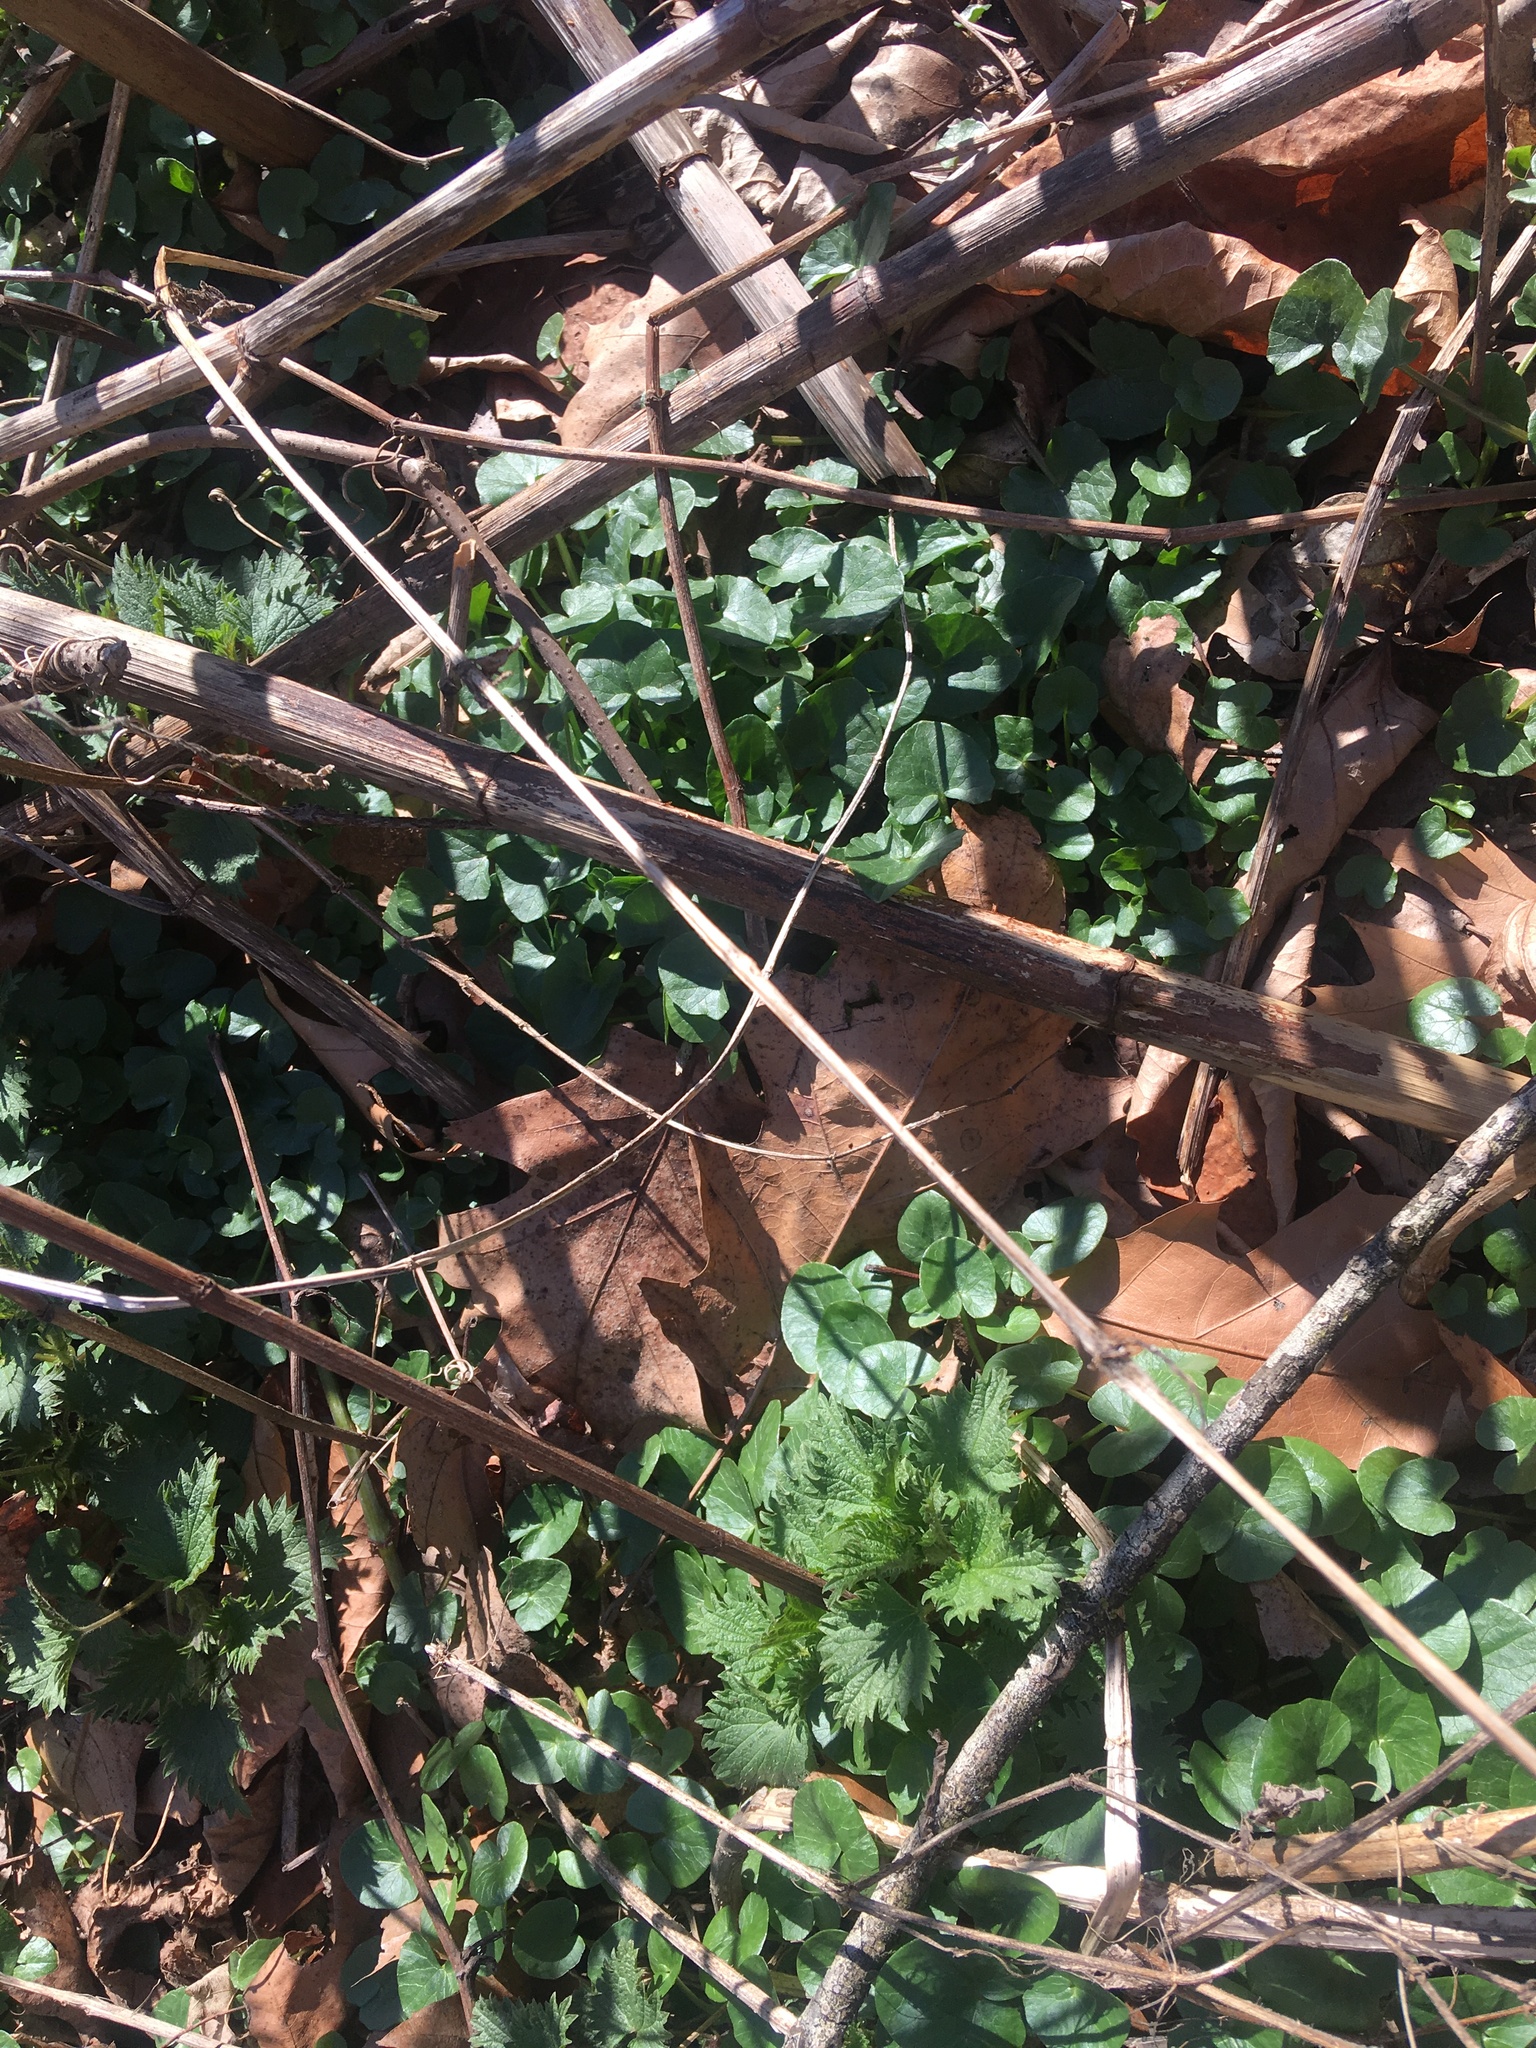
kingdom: Plantae
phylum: Tracheophyta
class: Magnoliopsida
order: Ranunculales
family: Ranunculaceae
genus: Ficaria
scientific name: Ficaria verna
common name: Lesser celandine
